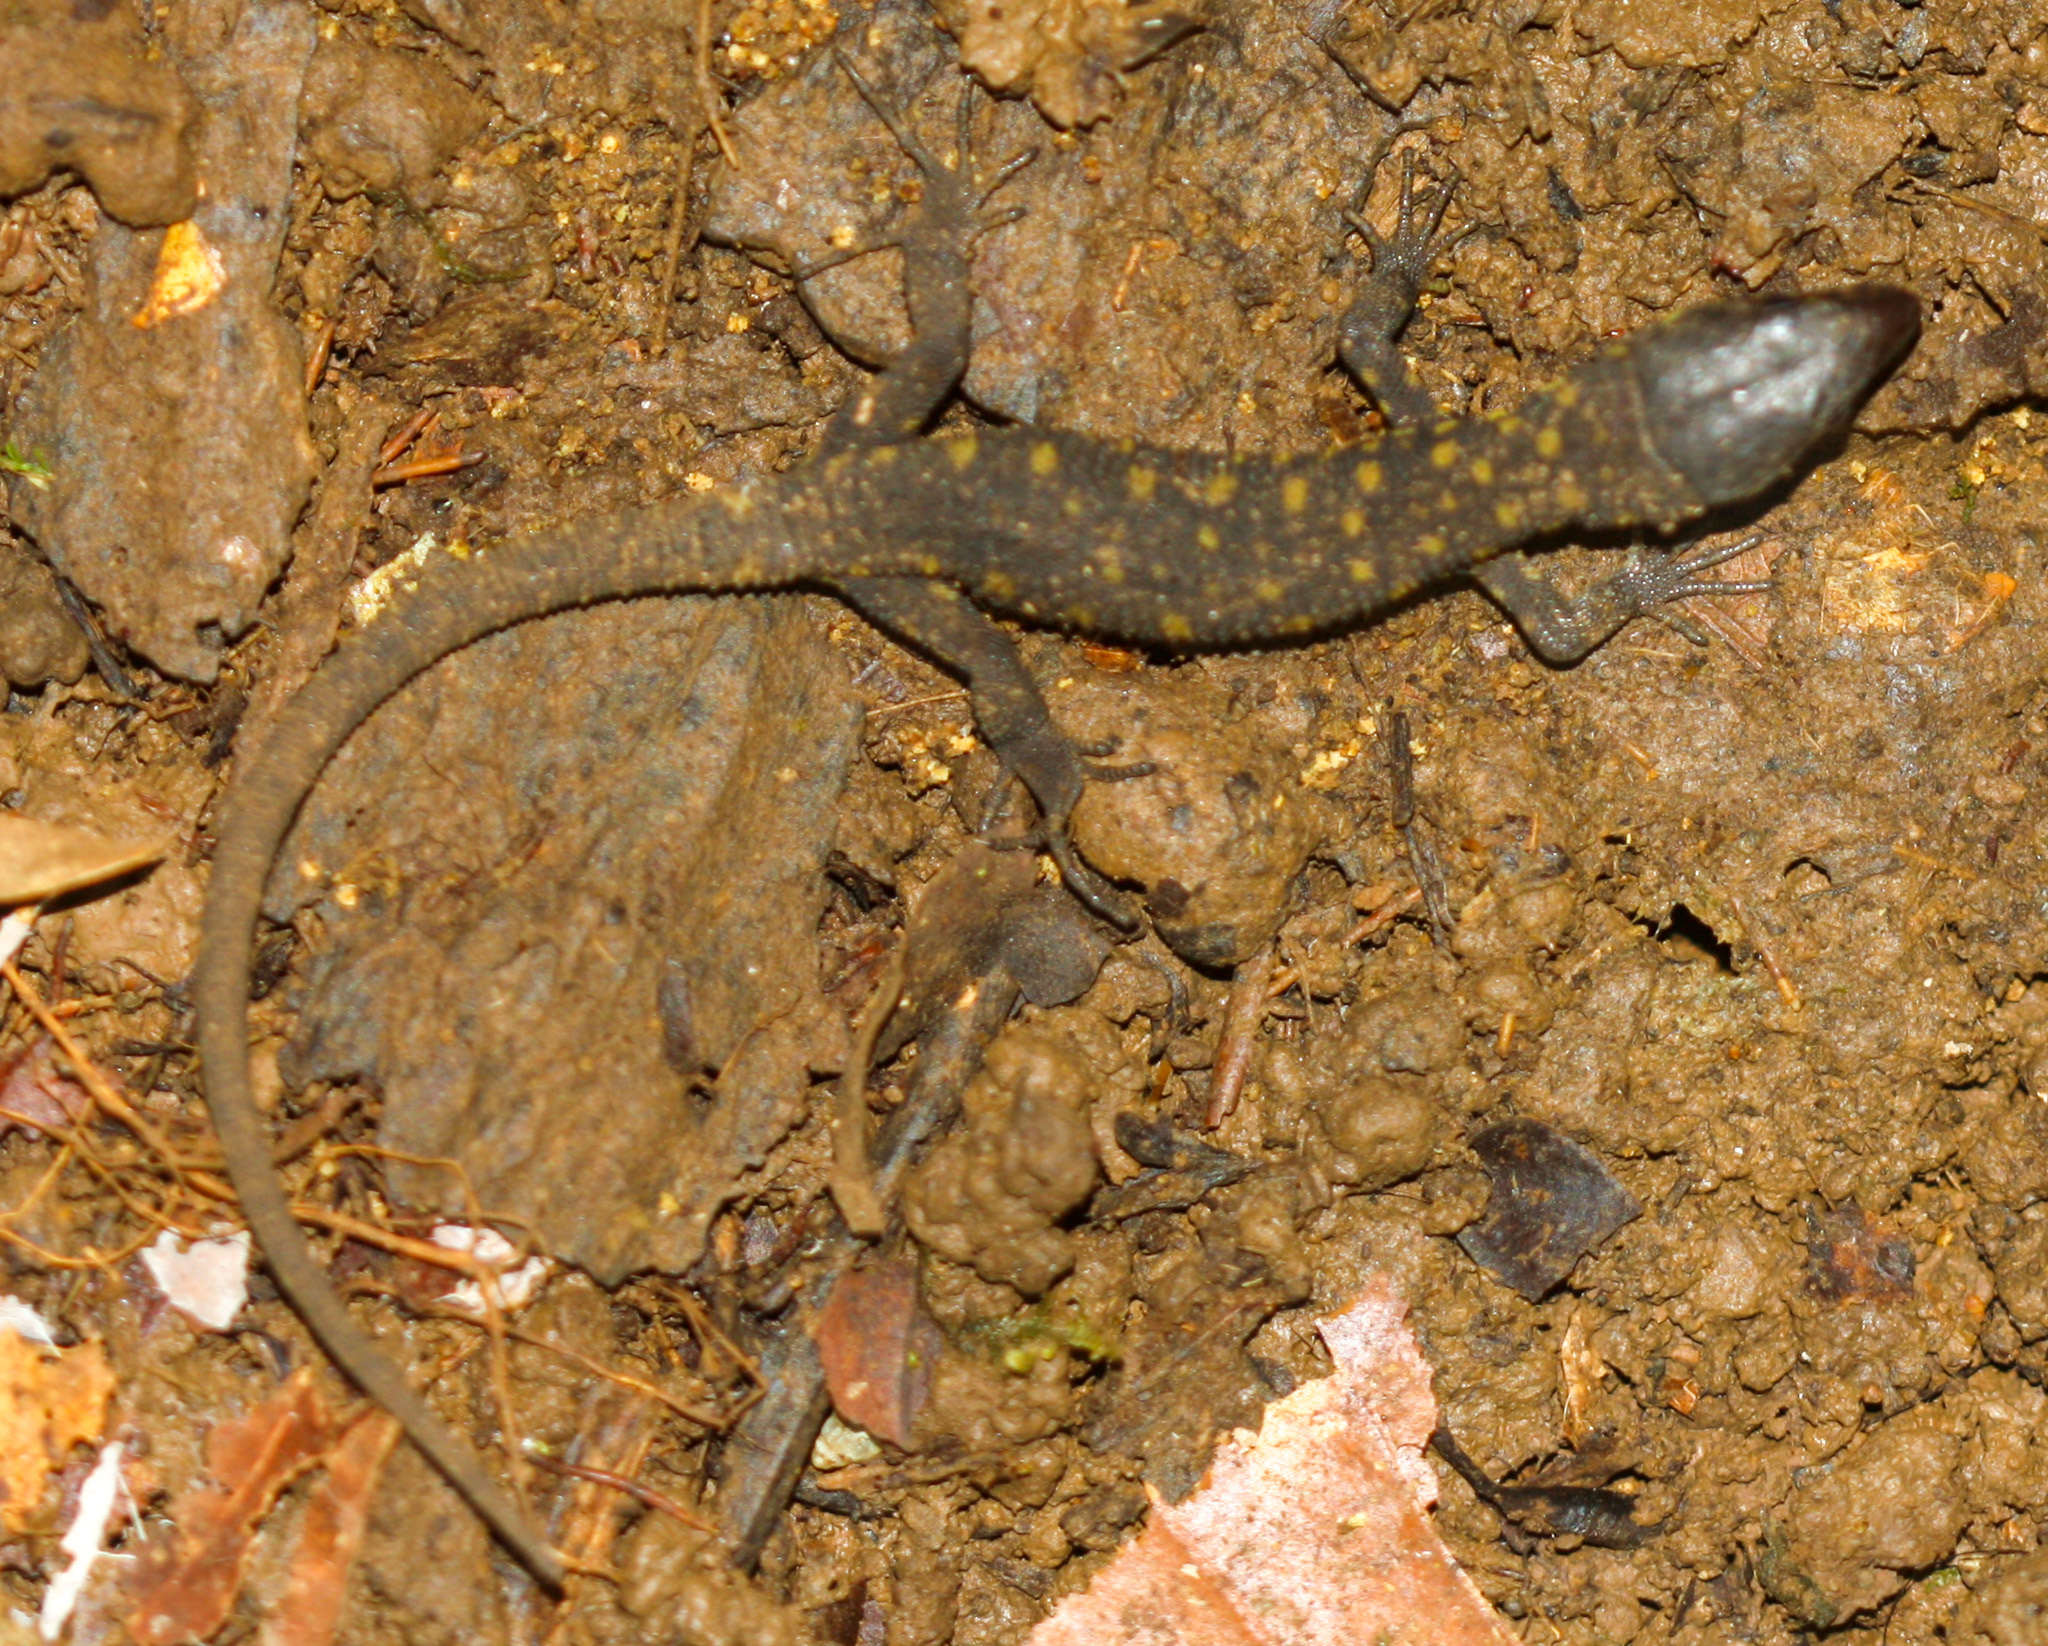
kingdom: Animalia
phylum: Chordata
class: Squamata
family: Xantusiidae
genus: Lepidophyma
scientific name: Lepidophyma flavimaculatum
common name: Yellow-spotted night lizard
